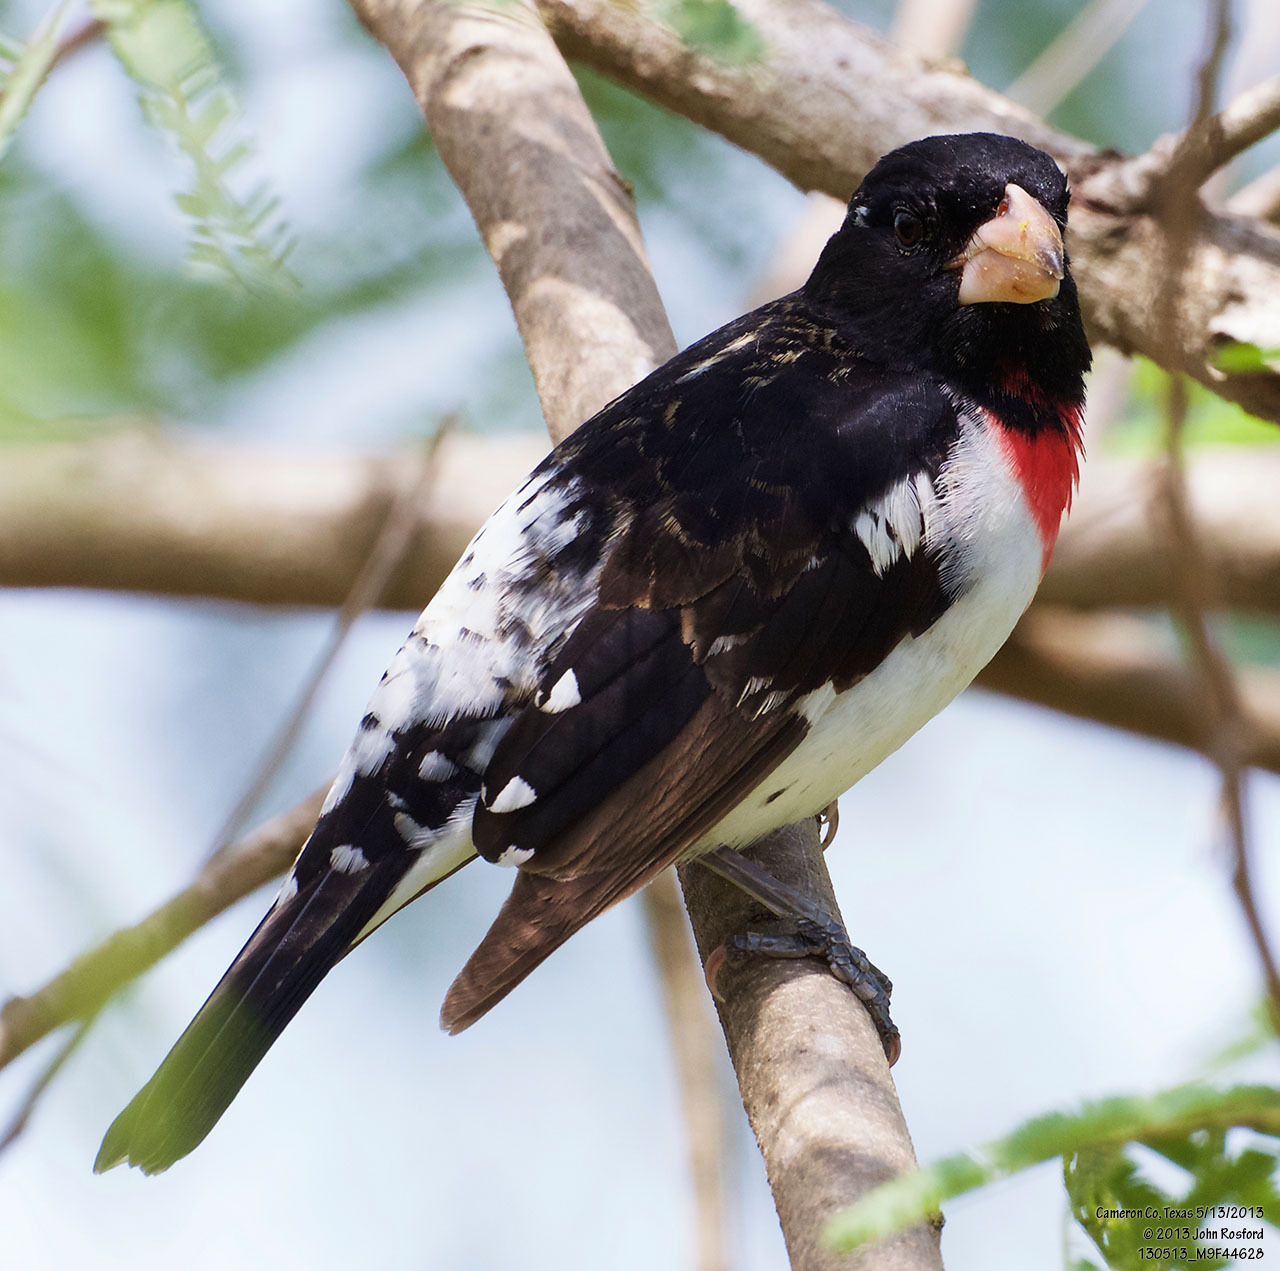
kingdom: Animalia
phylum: Chordata
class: Aves
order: Passeriformes
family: Cardinalidae
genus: Pheucticus
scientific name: Pheucticus ludovicianus
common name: Rose-breasted grosbeak
